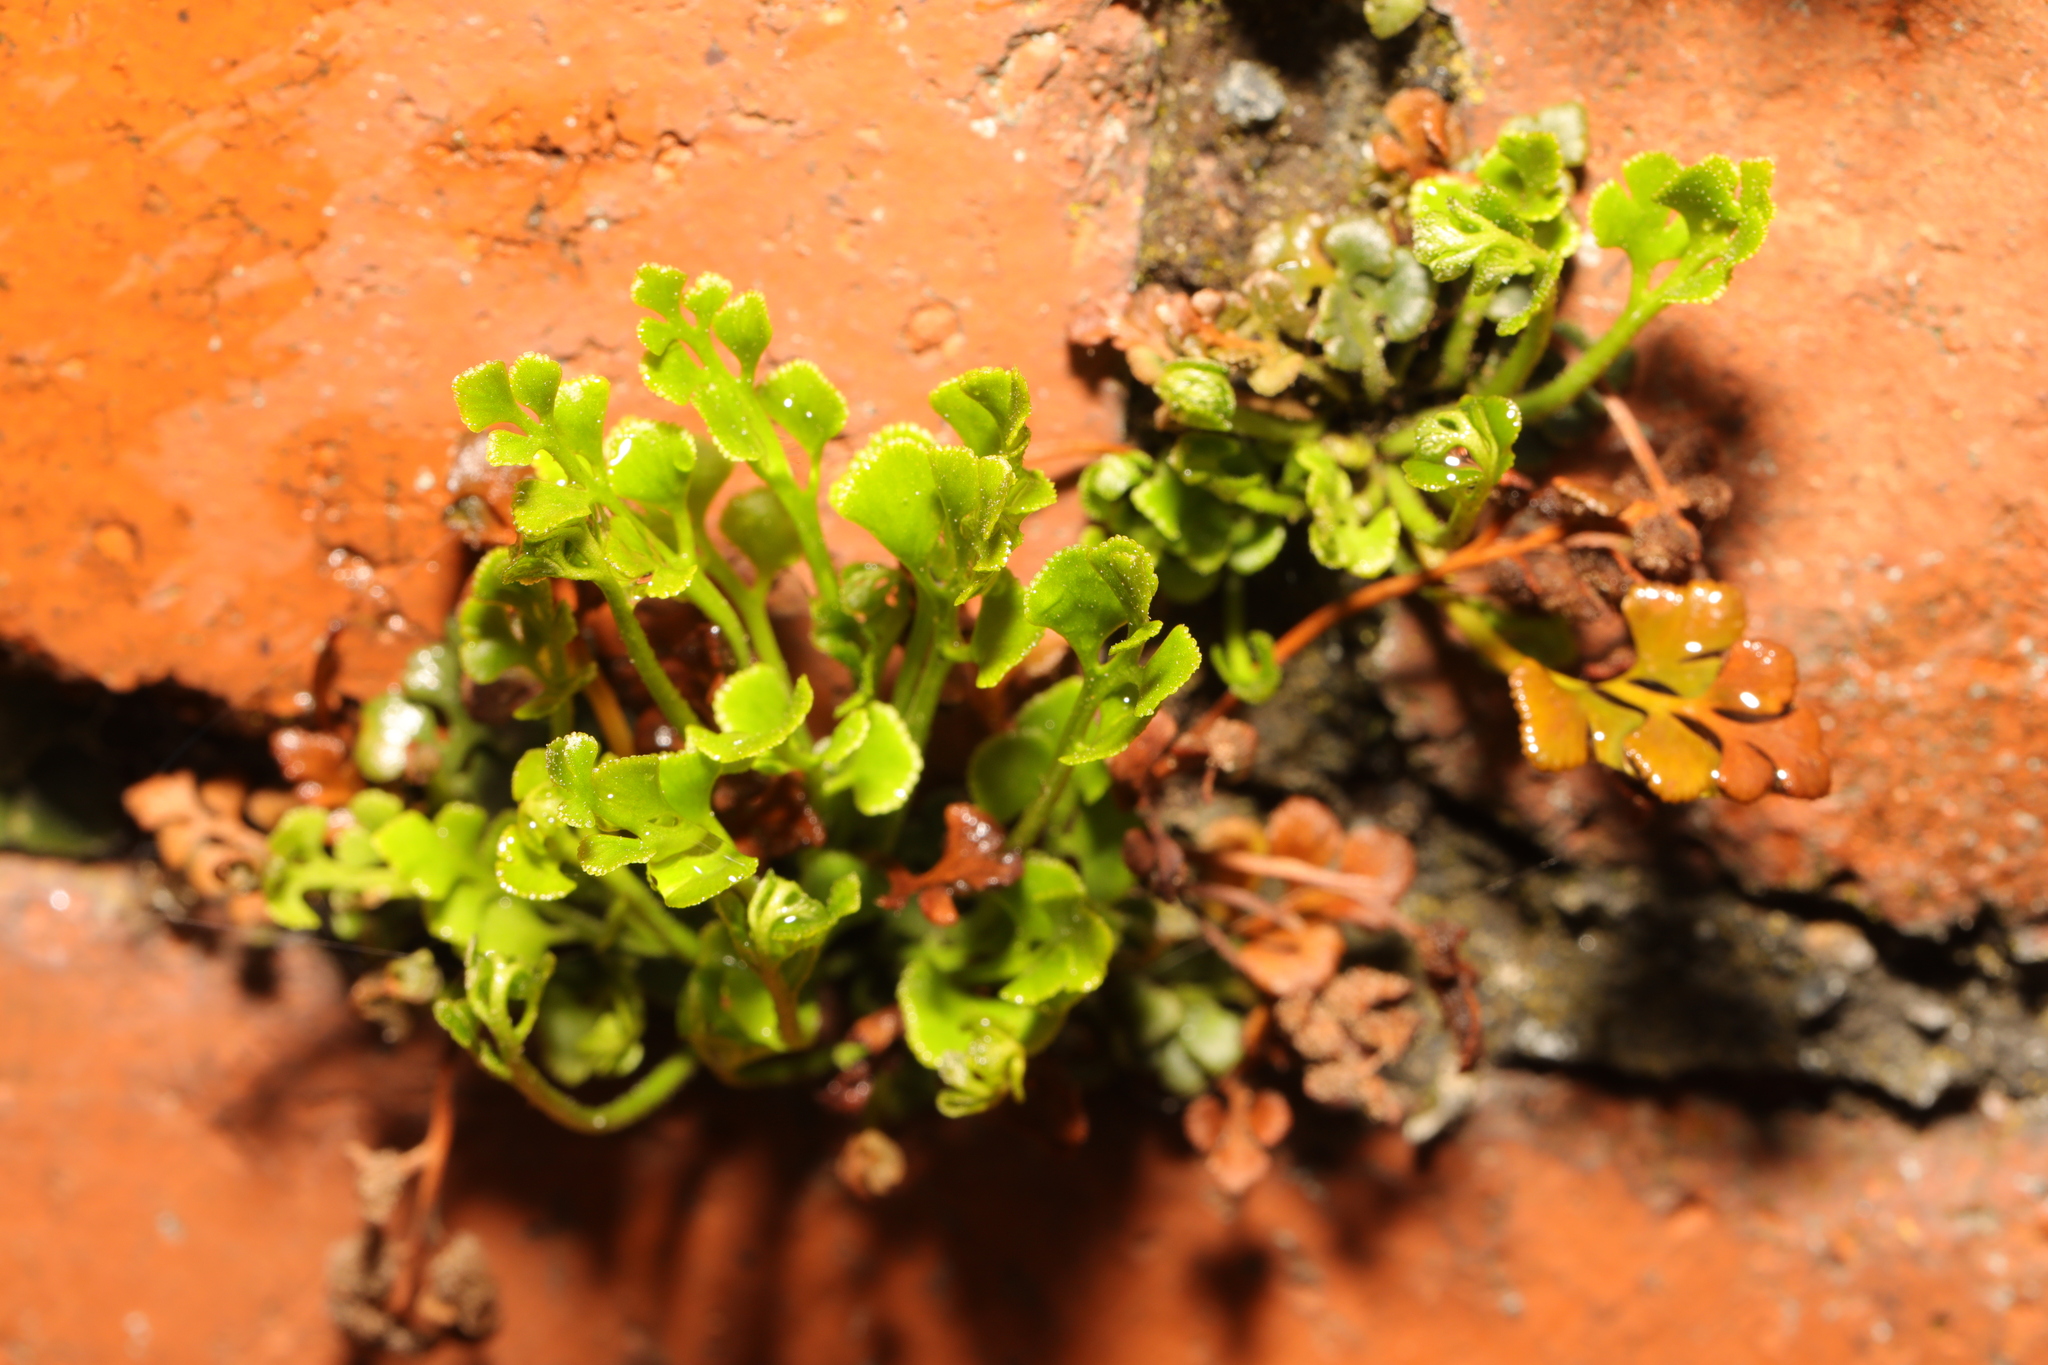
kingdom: Plantae
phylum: Tracheophyta
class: Polypodiopsida
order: Polypodiales
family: Aspleniaceae
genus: Asplenium
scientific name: Asplenium ruta-muraria
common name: Wall-rue
